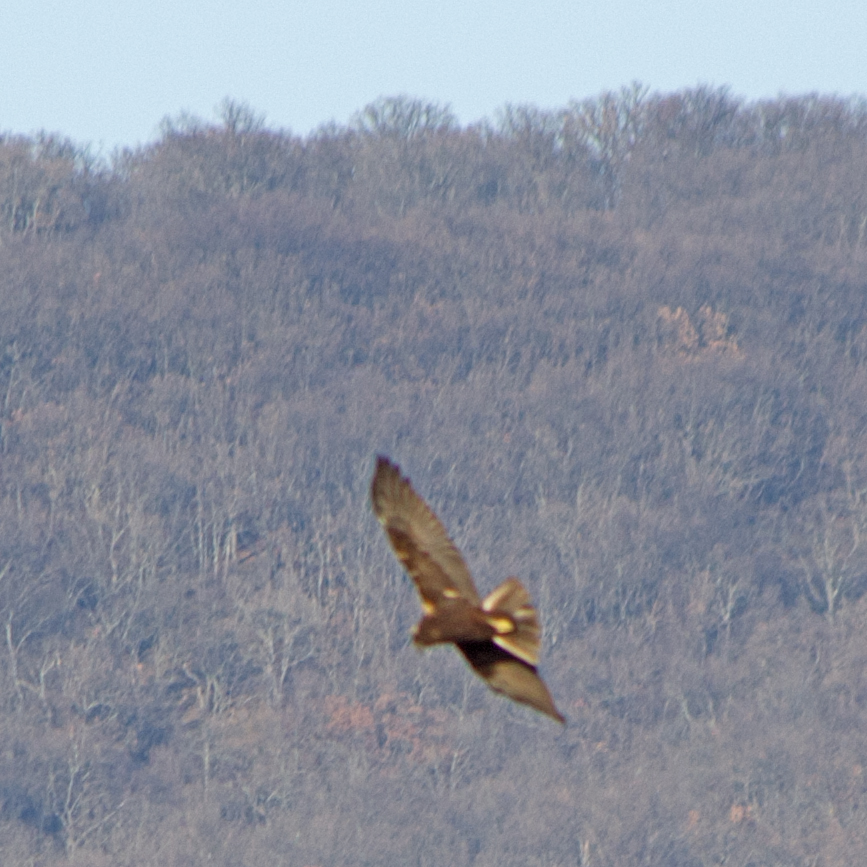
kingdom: Animalia
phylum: Chordata
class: Aves
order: Accipitriformes
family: Accipitridae
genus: Circus
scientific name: Circus aeruginosus
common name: Western marsh harrier
